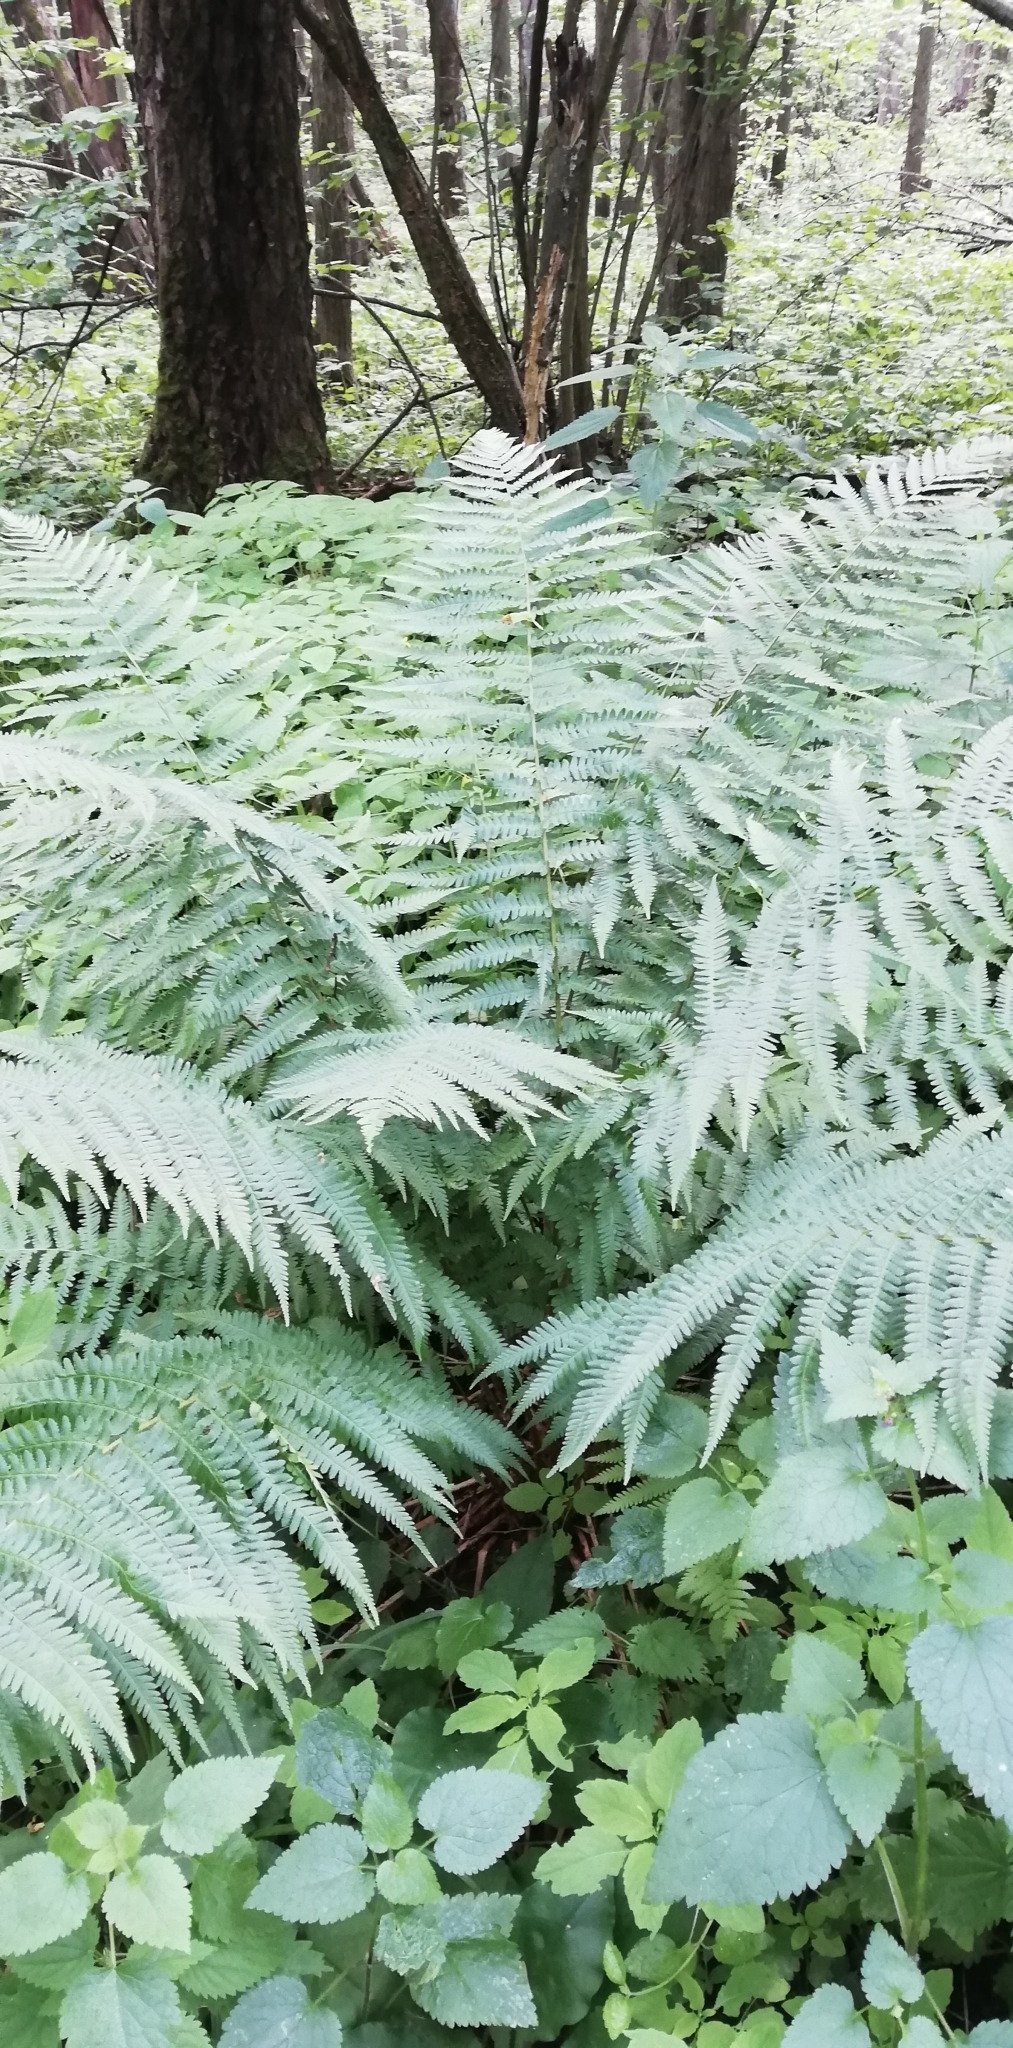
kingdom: Plantae
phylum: Tracheophyta
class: Polypodiopsida
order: Polypodiales
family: Dryopteridaceae
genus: Dryopteris
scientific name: Dryopteris filix-mas
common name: Male fern
